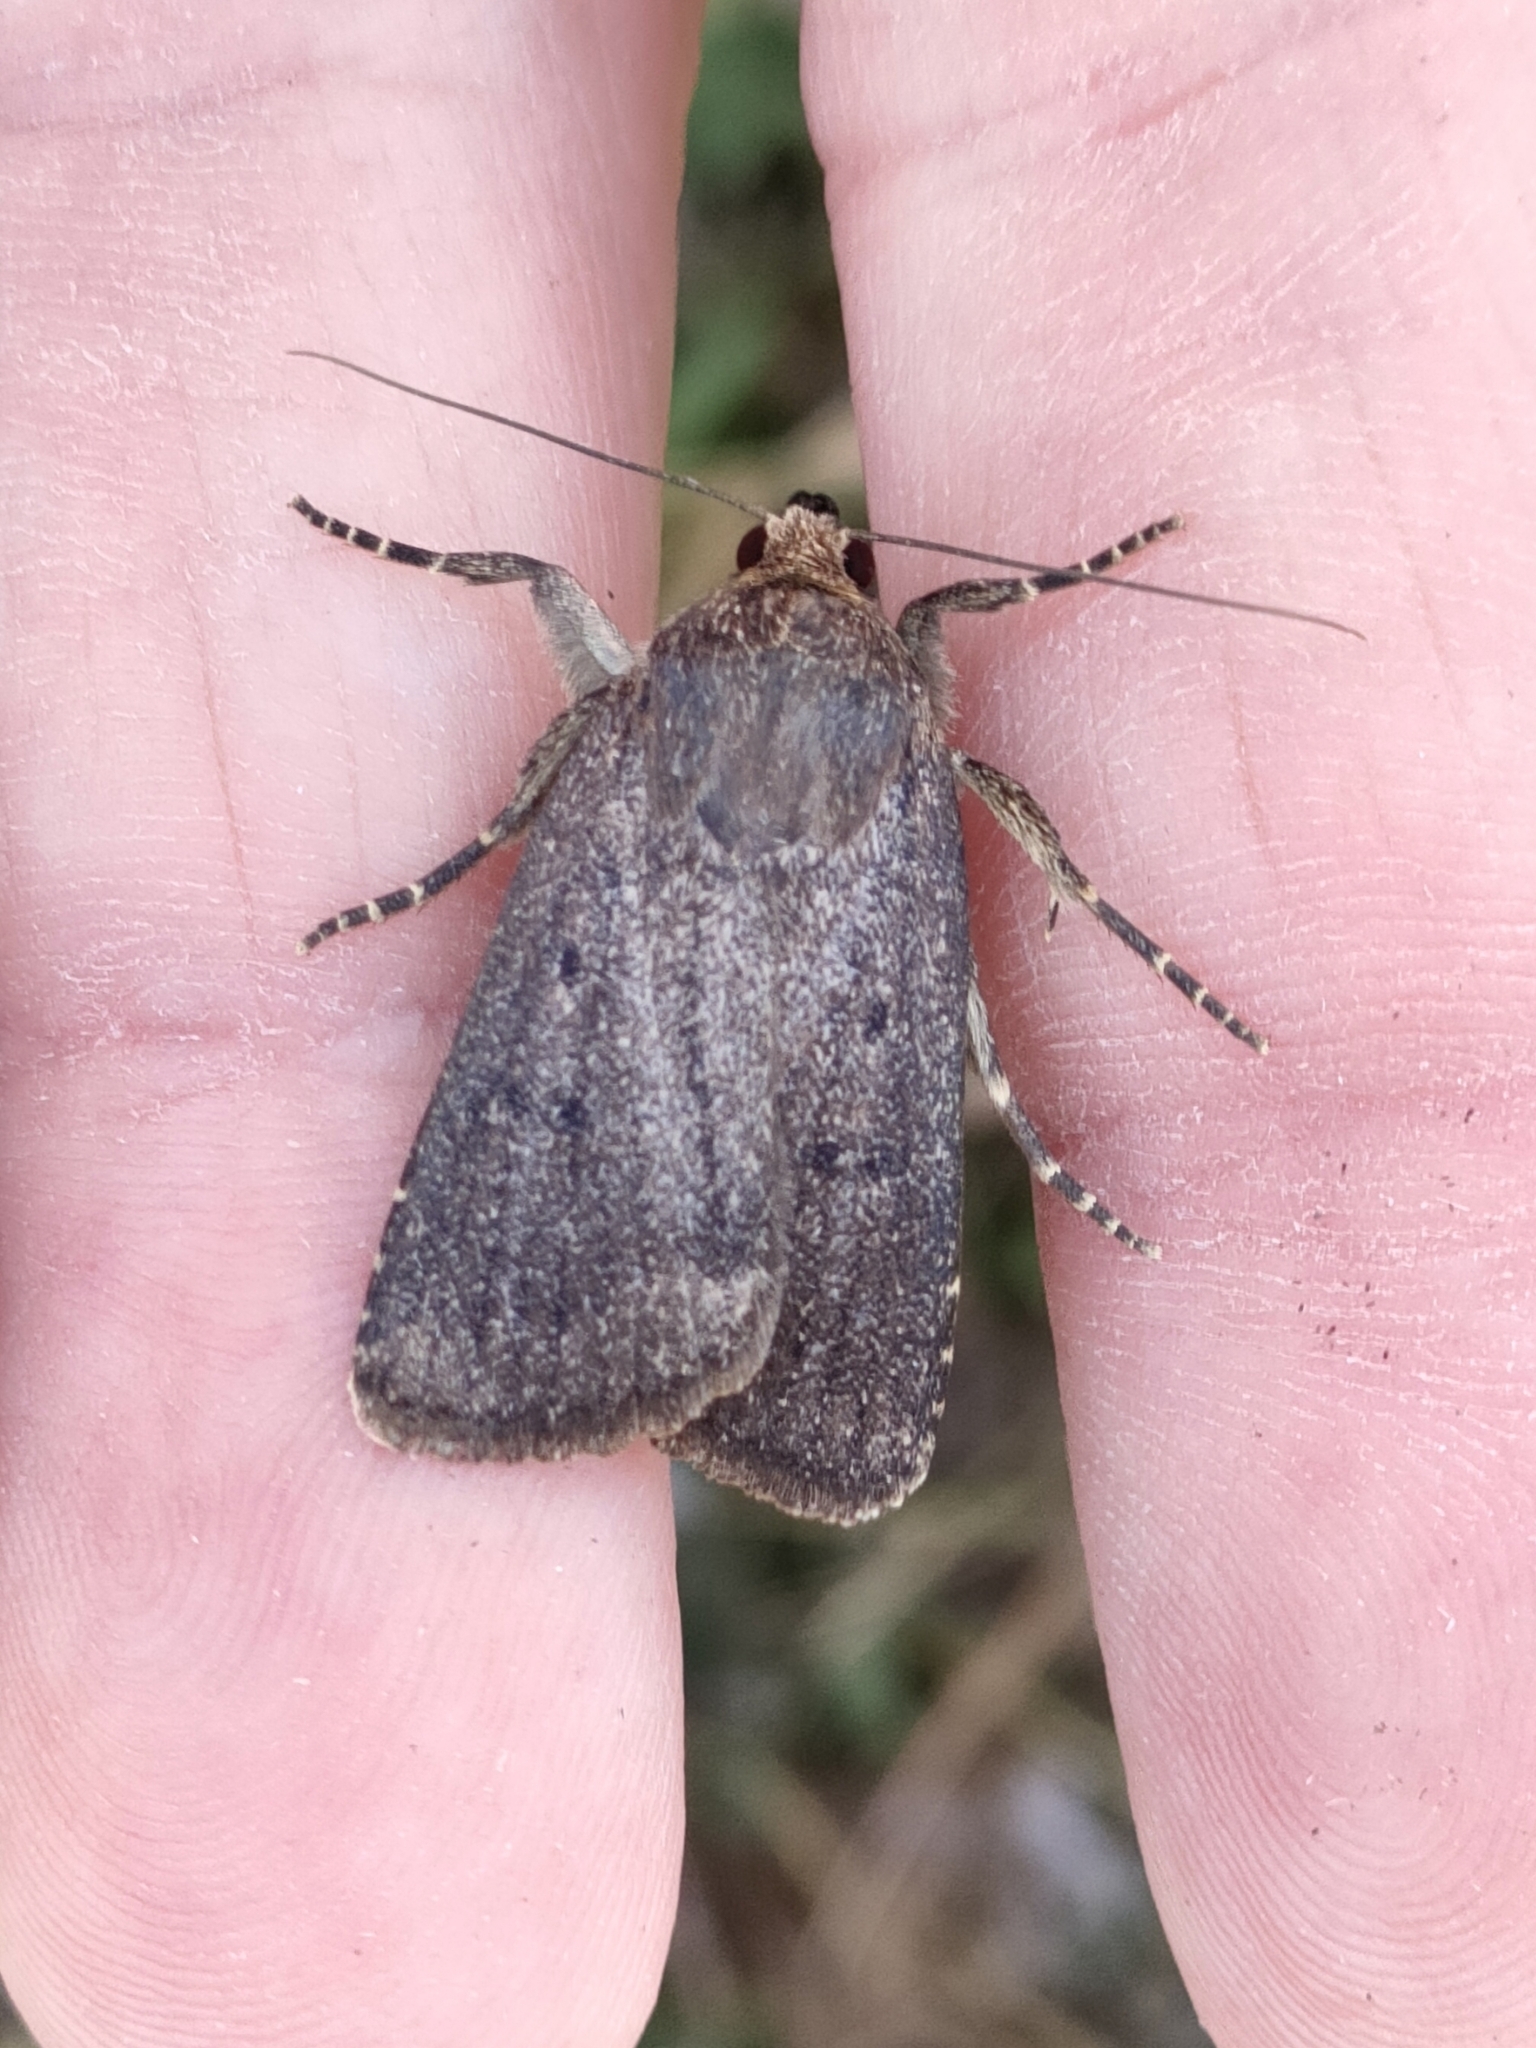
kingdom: Animalia
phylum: Arthropoda
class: Insecta
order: Lepidoptera
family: Noctuidae
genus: Amphipyra
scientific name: Amphipyra tragopoginis
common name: Mouse moth
